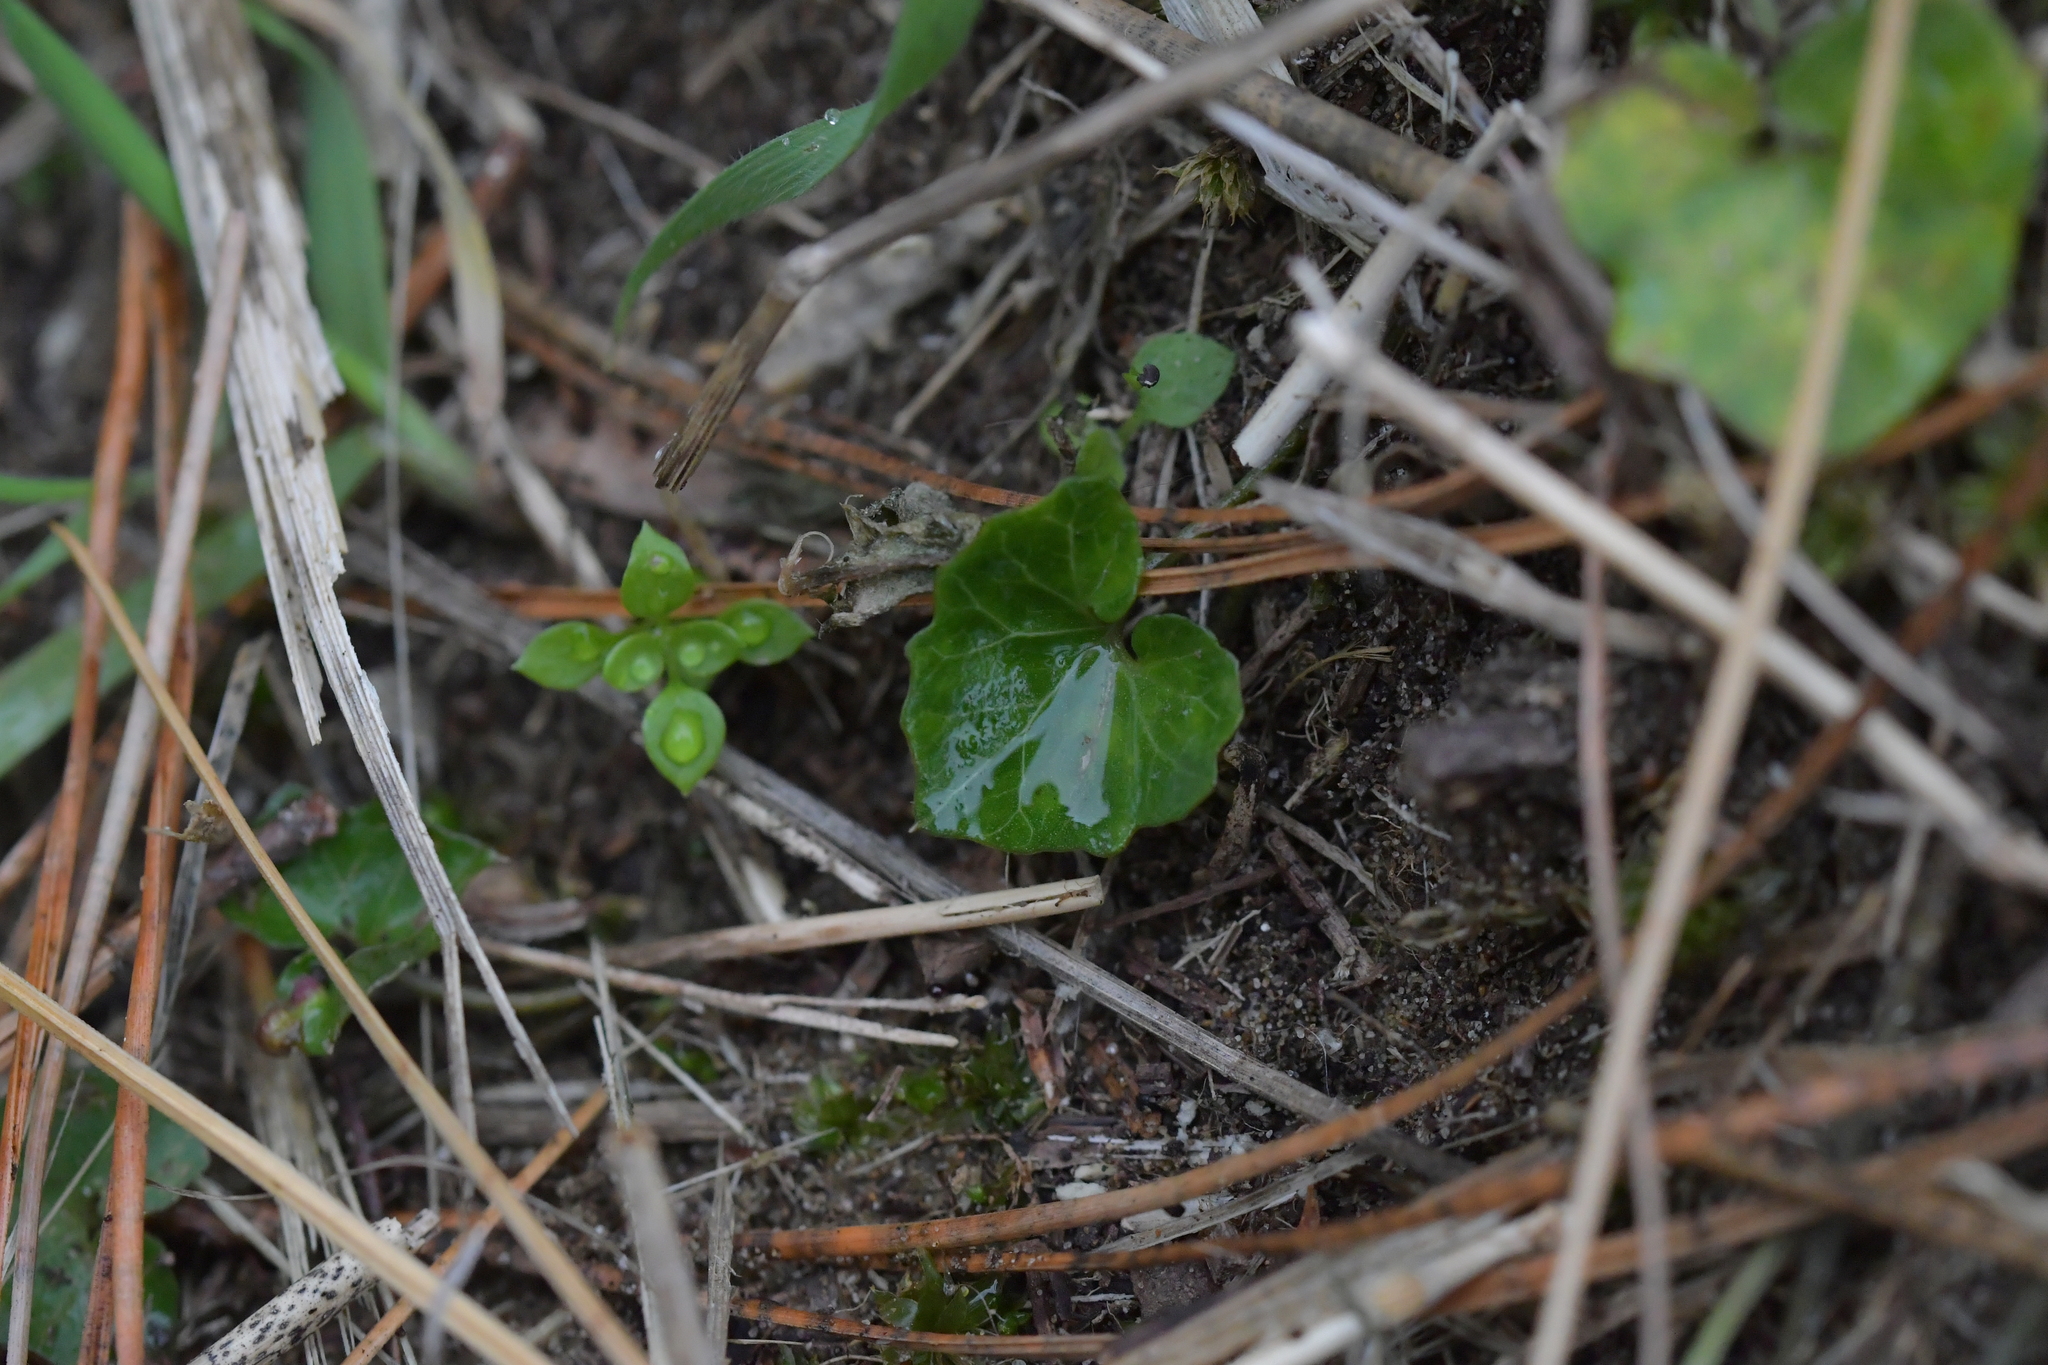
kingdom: Plantae
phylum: Tracheophyta
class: Magnoliopsida
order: Solanales
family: Convolvulaceae
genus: Calystegia
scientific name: Calystegia tuguriorum
